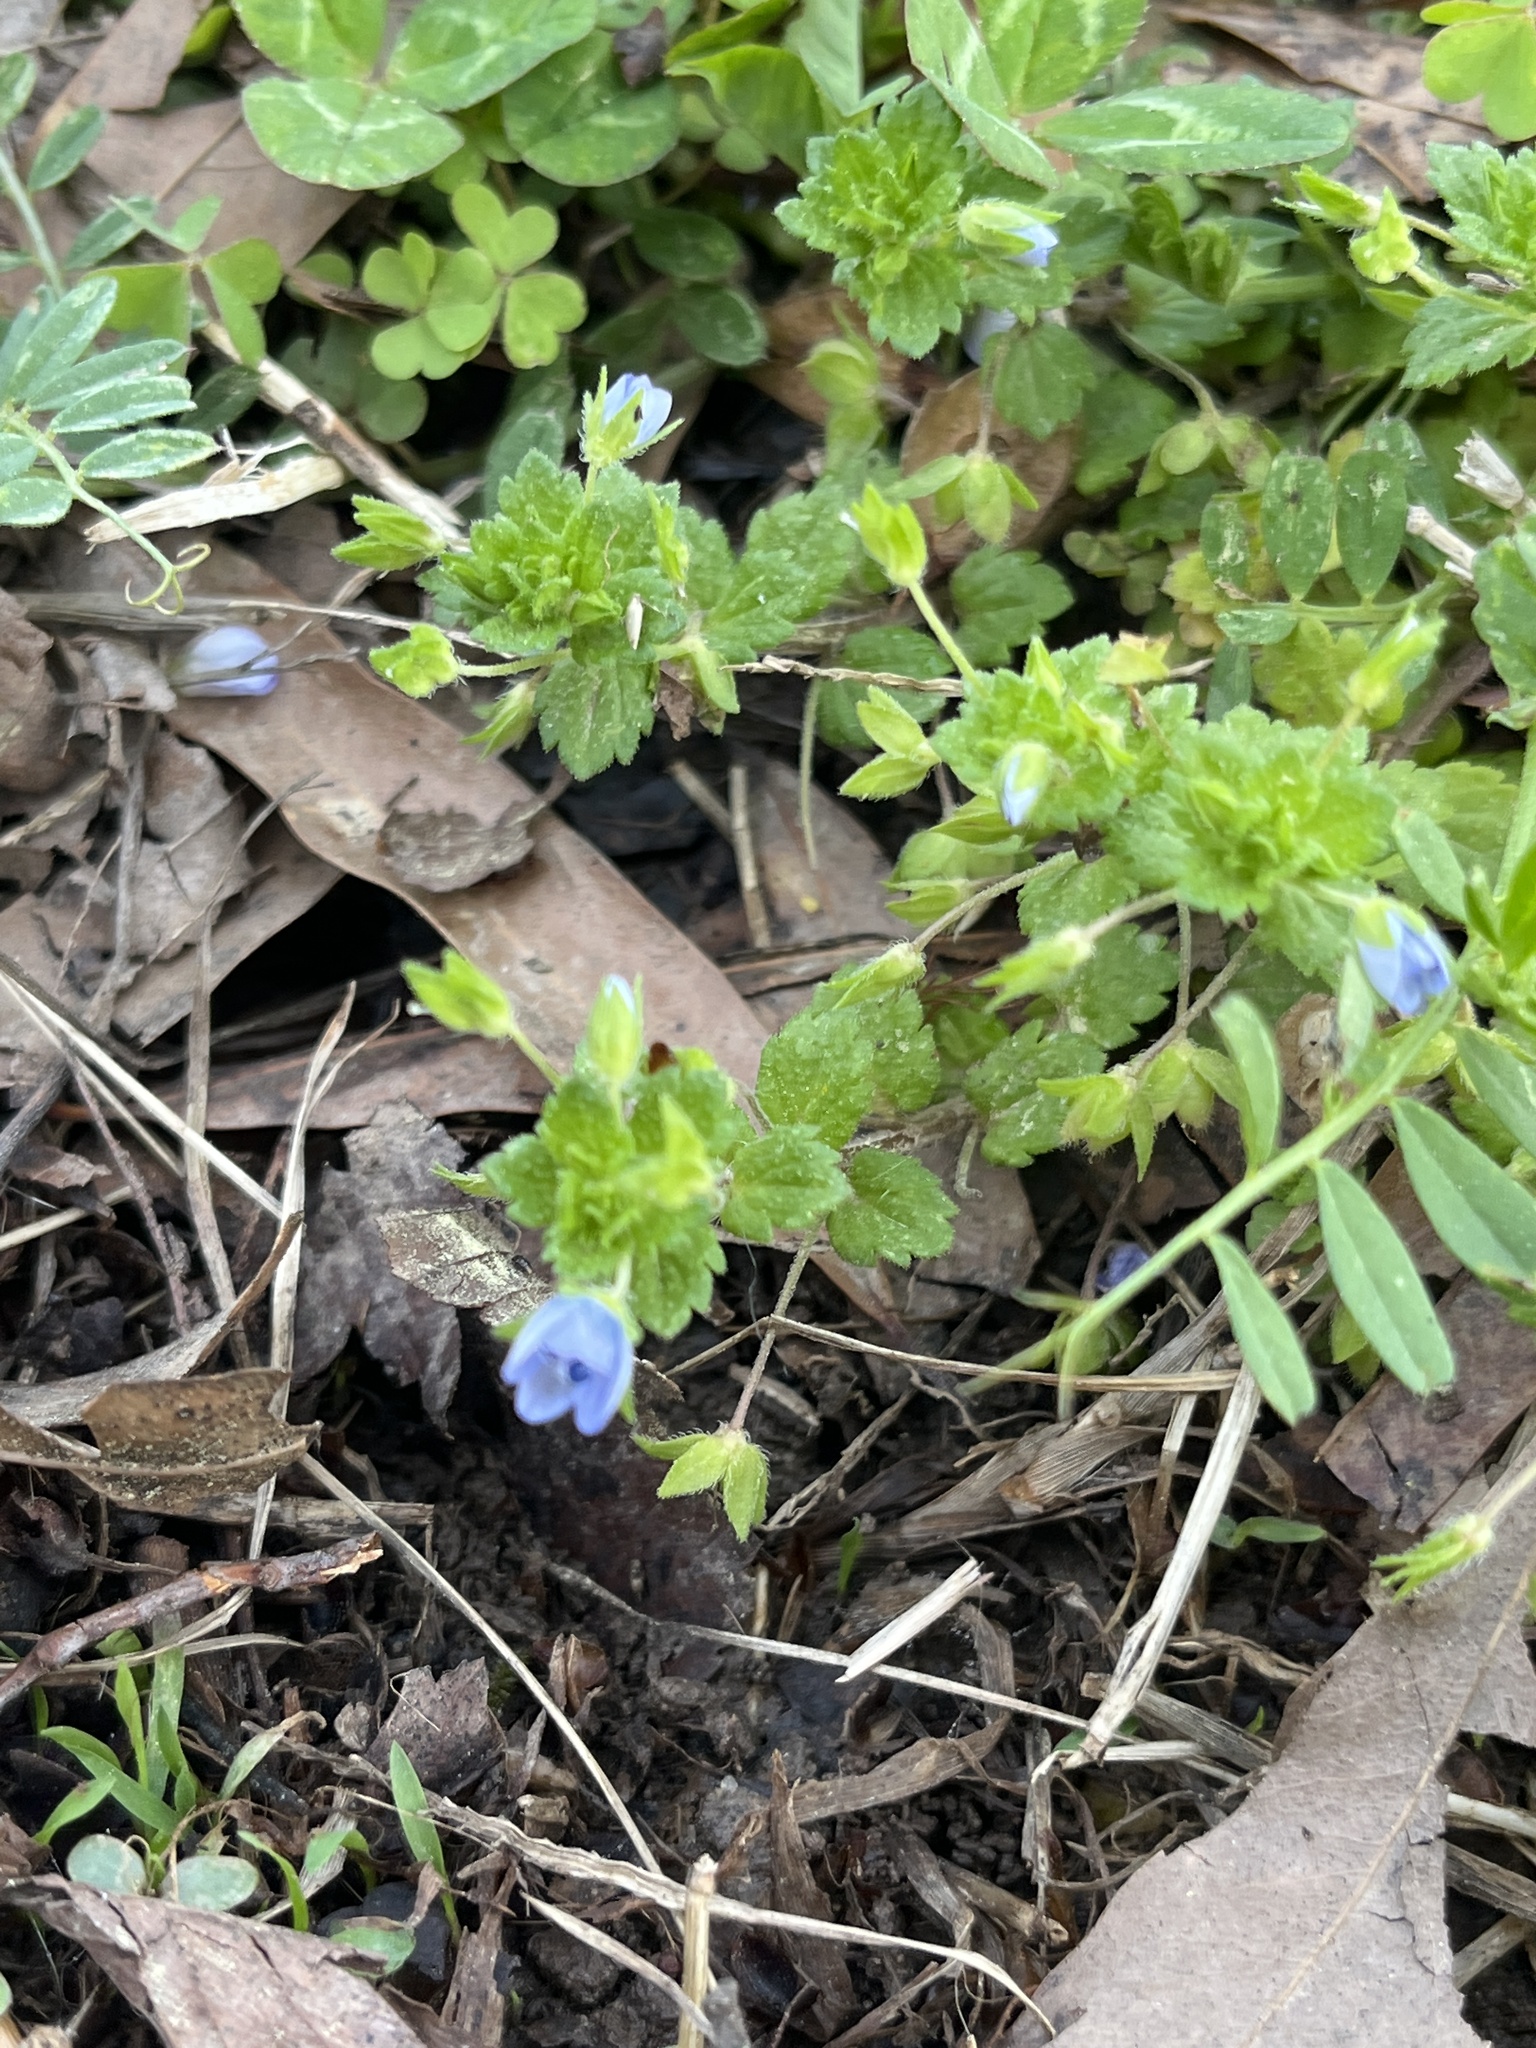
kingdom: Plantae
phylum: Tracheophyta
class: Magnoliopsida
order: Lamiales
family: Plantaginaceae
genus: Veronica
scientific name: Veronica persica
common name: Common field-speedwell
